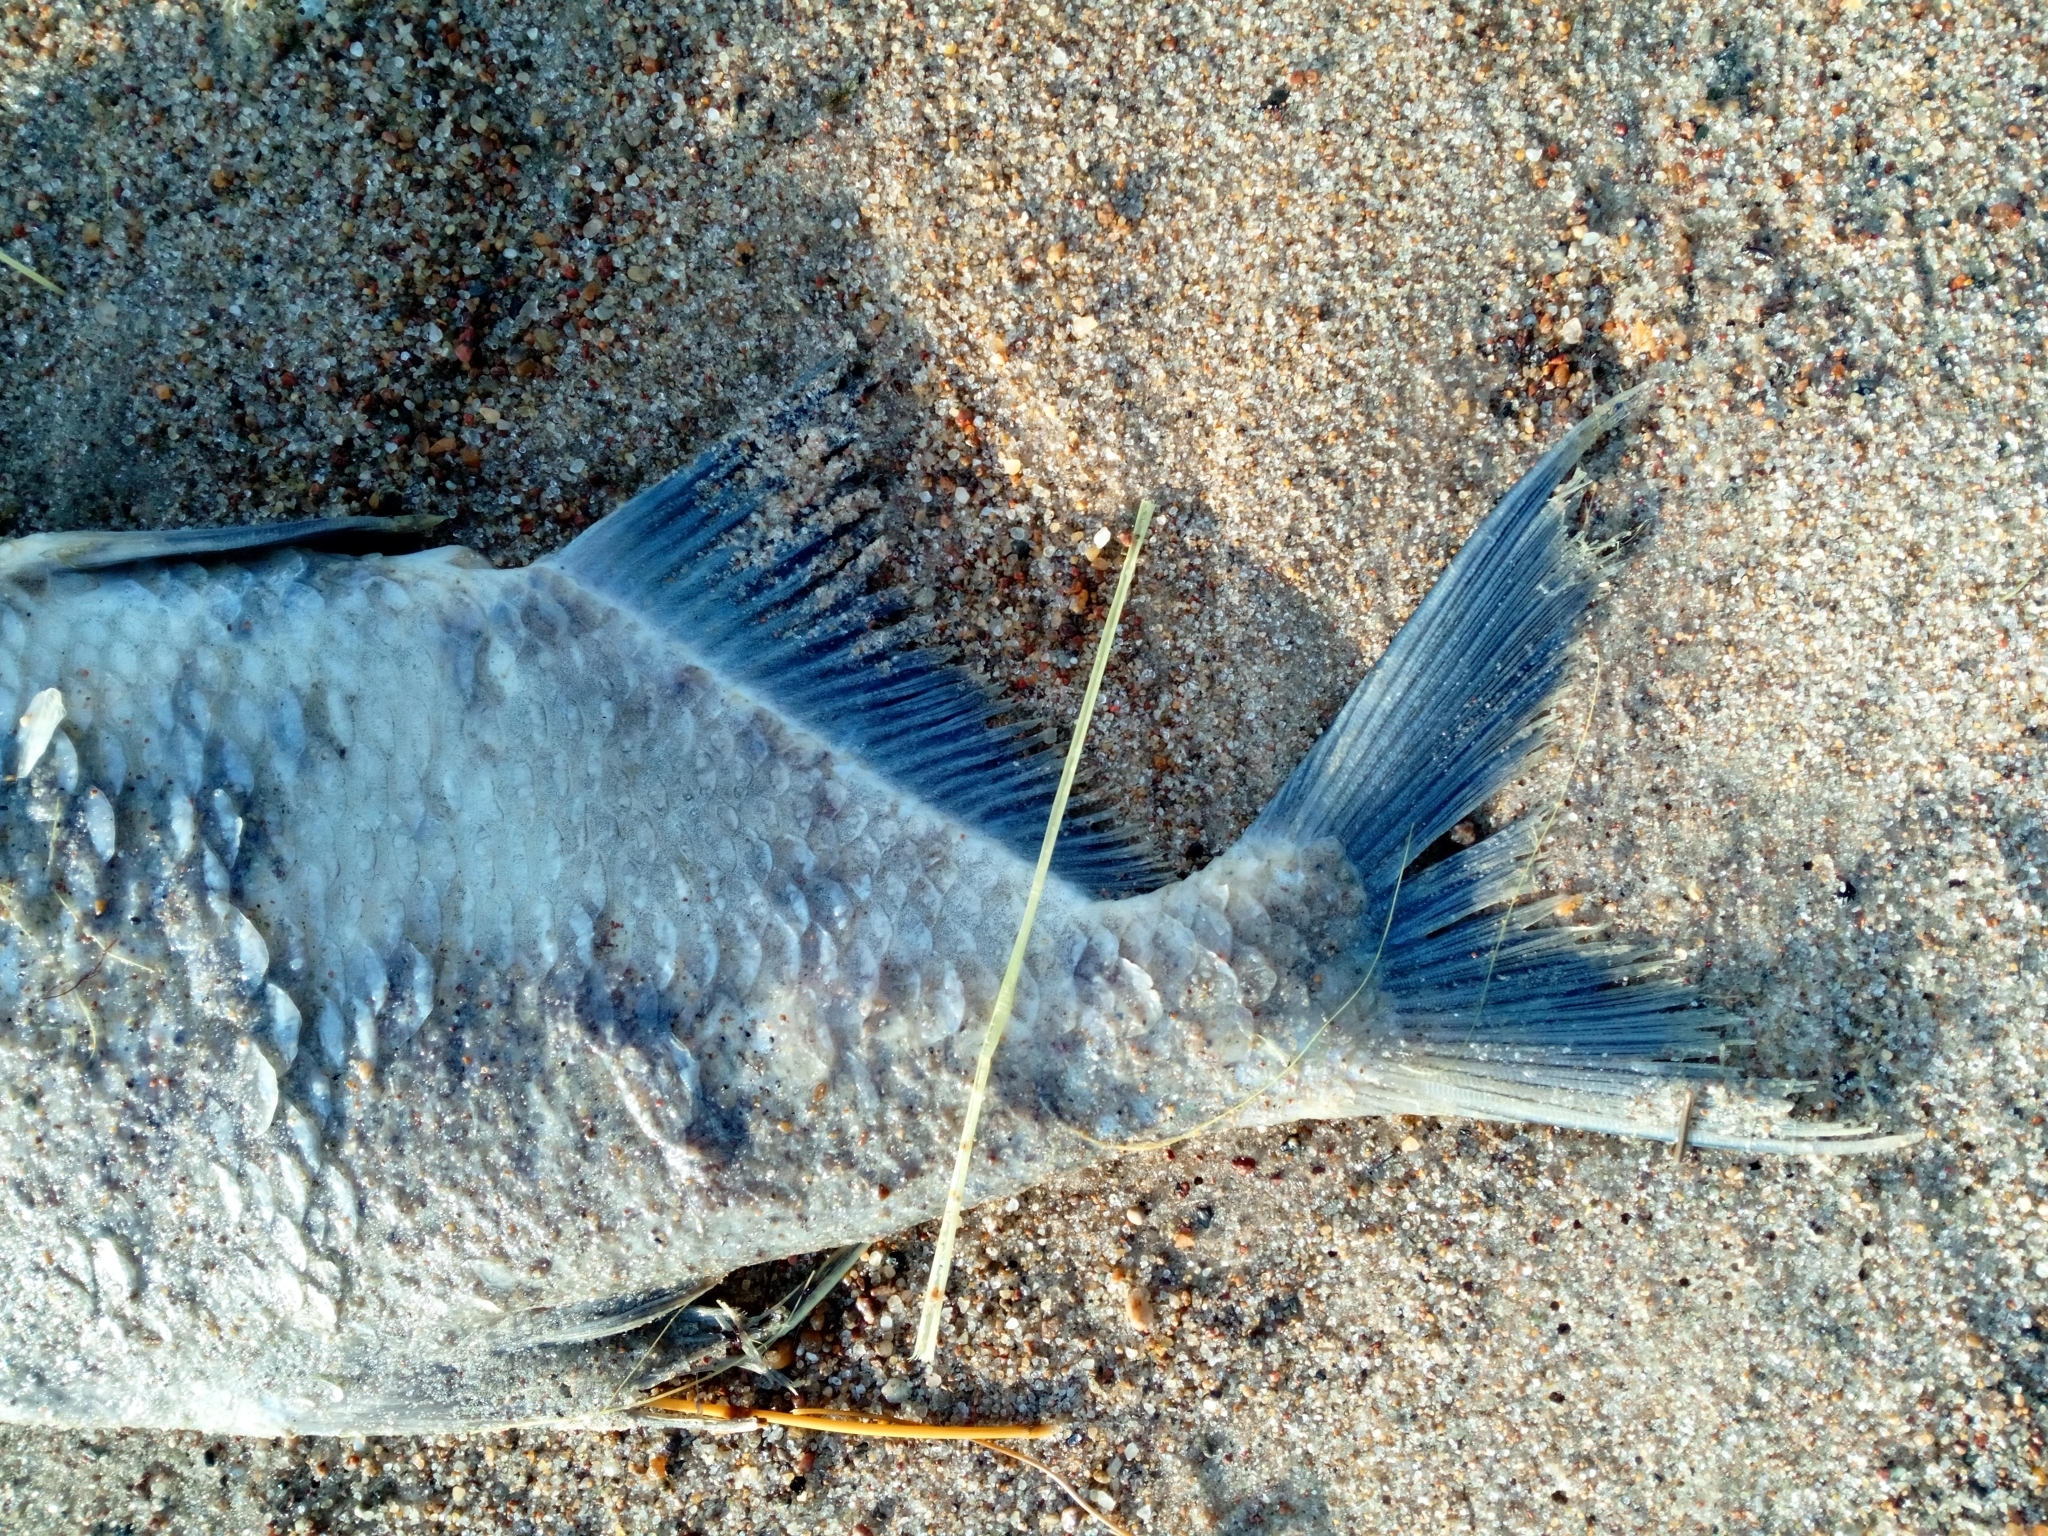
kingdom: Animalia
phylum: Chordata
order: Cypriniformes
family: Cyprinidae
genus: Abramis
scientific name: Abramis brama
